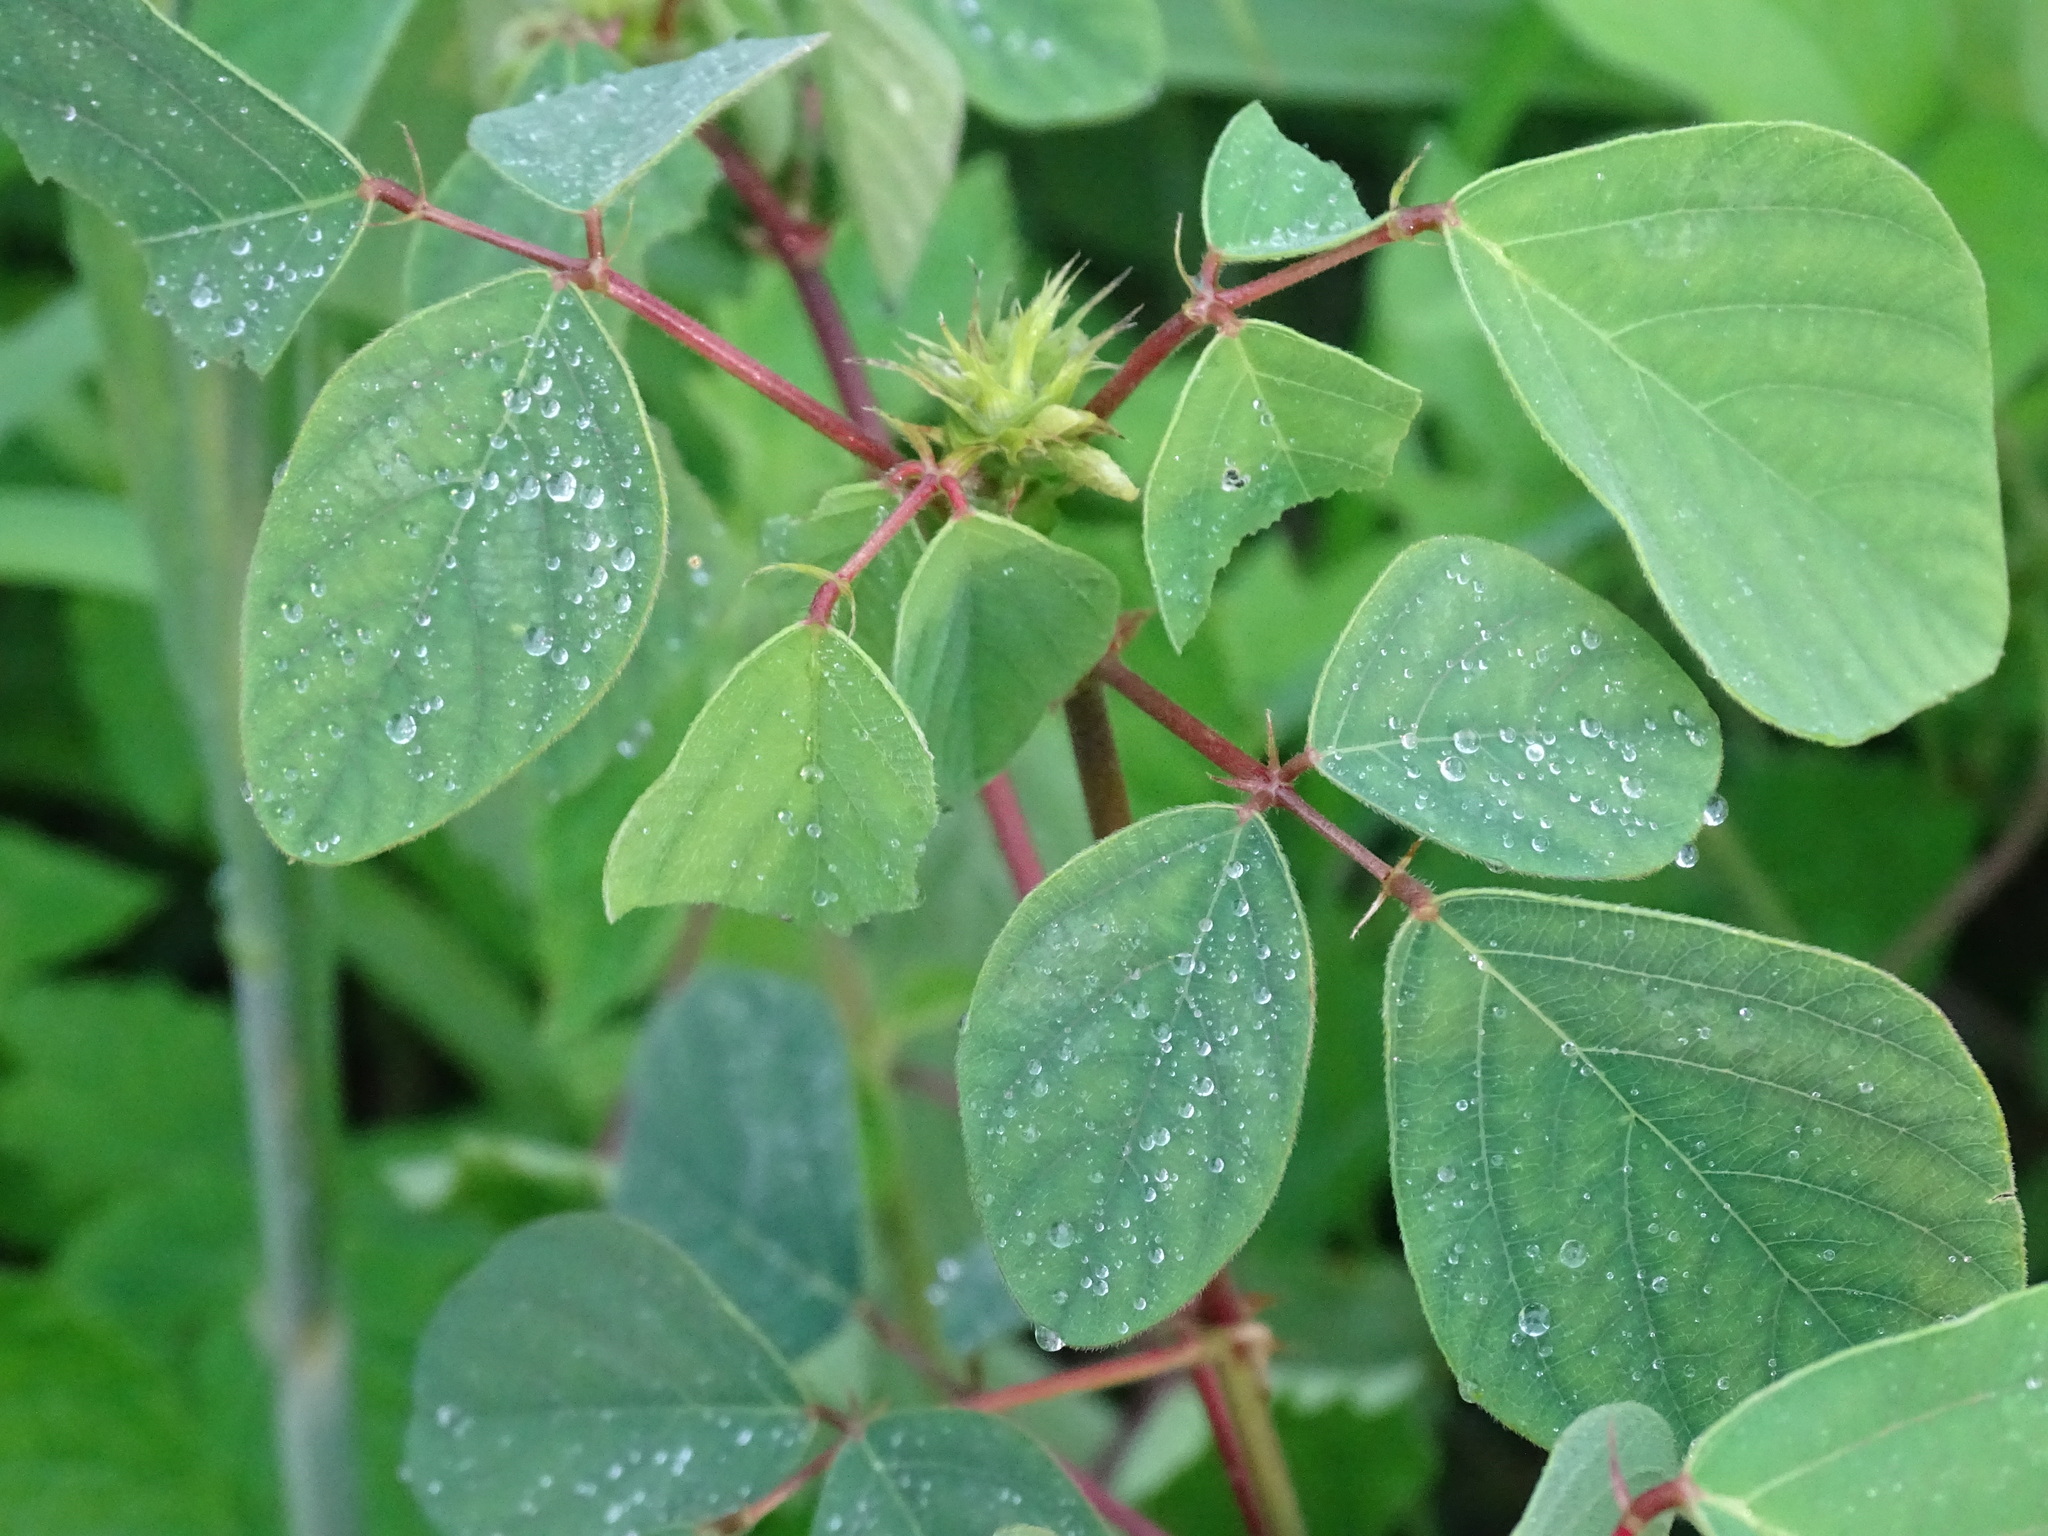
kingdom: Plantae
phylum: Tracheophyta
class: Magnoliopsida
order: Fabales
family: Fabaceae
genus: Desmodium
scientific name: Desmodium tortuosum
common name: Dixie ticktrefoil
